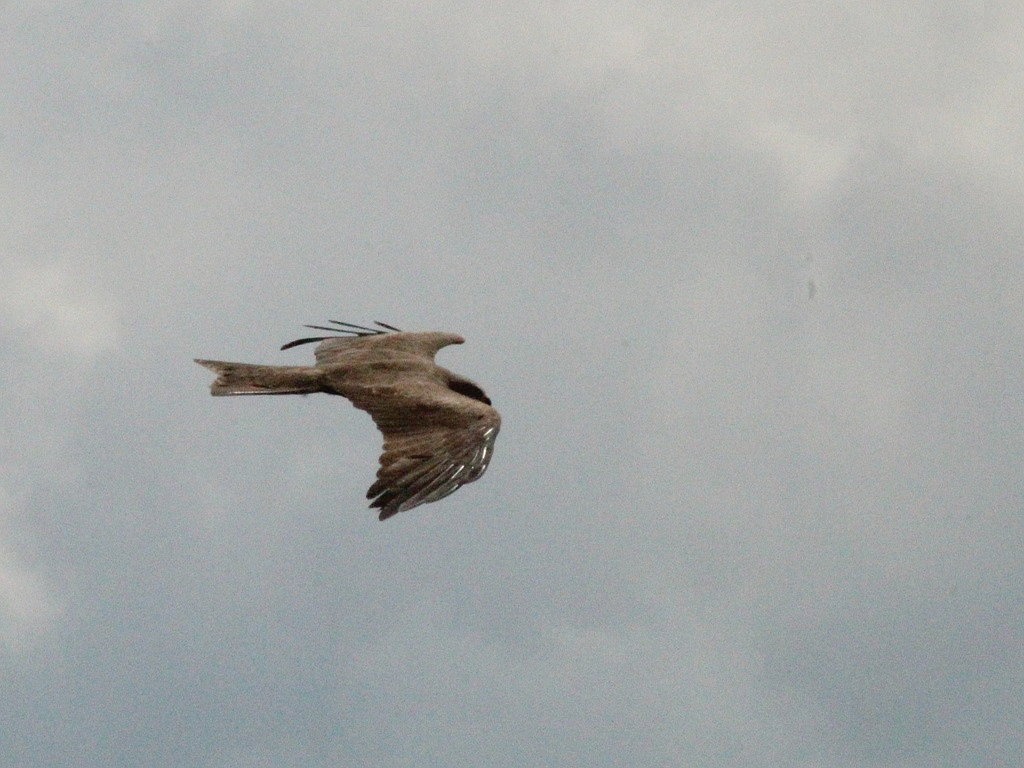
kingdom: Animalia
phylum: Chordata
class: Aves
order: Accipitriformes
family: Accipitridae
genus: Milvus
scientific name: Milvus migrans
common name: Black kite
